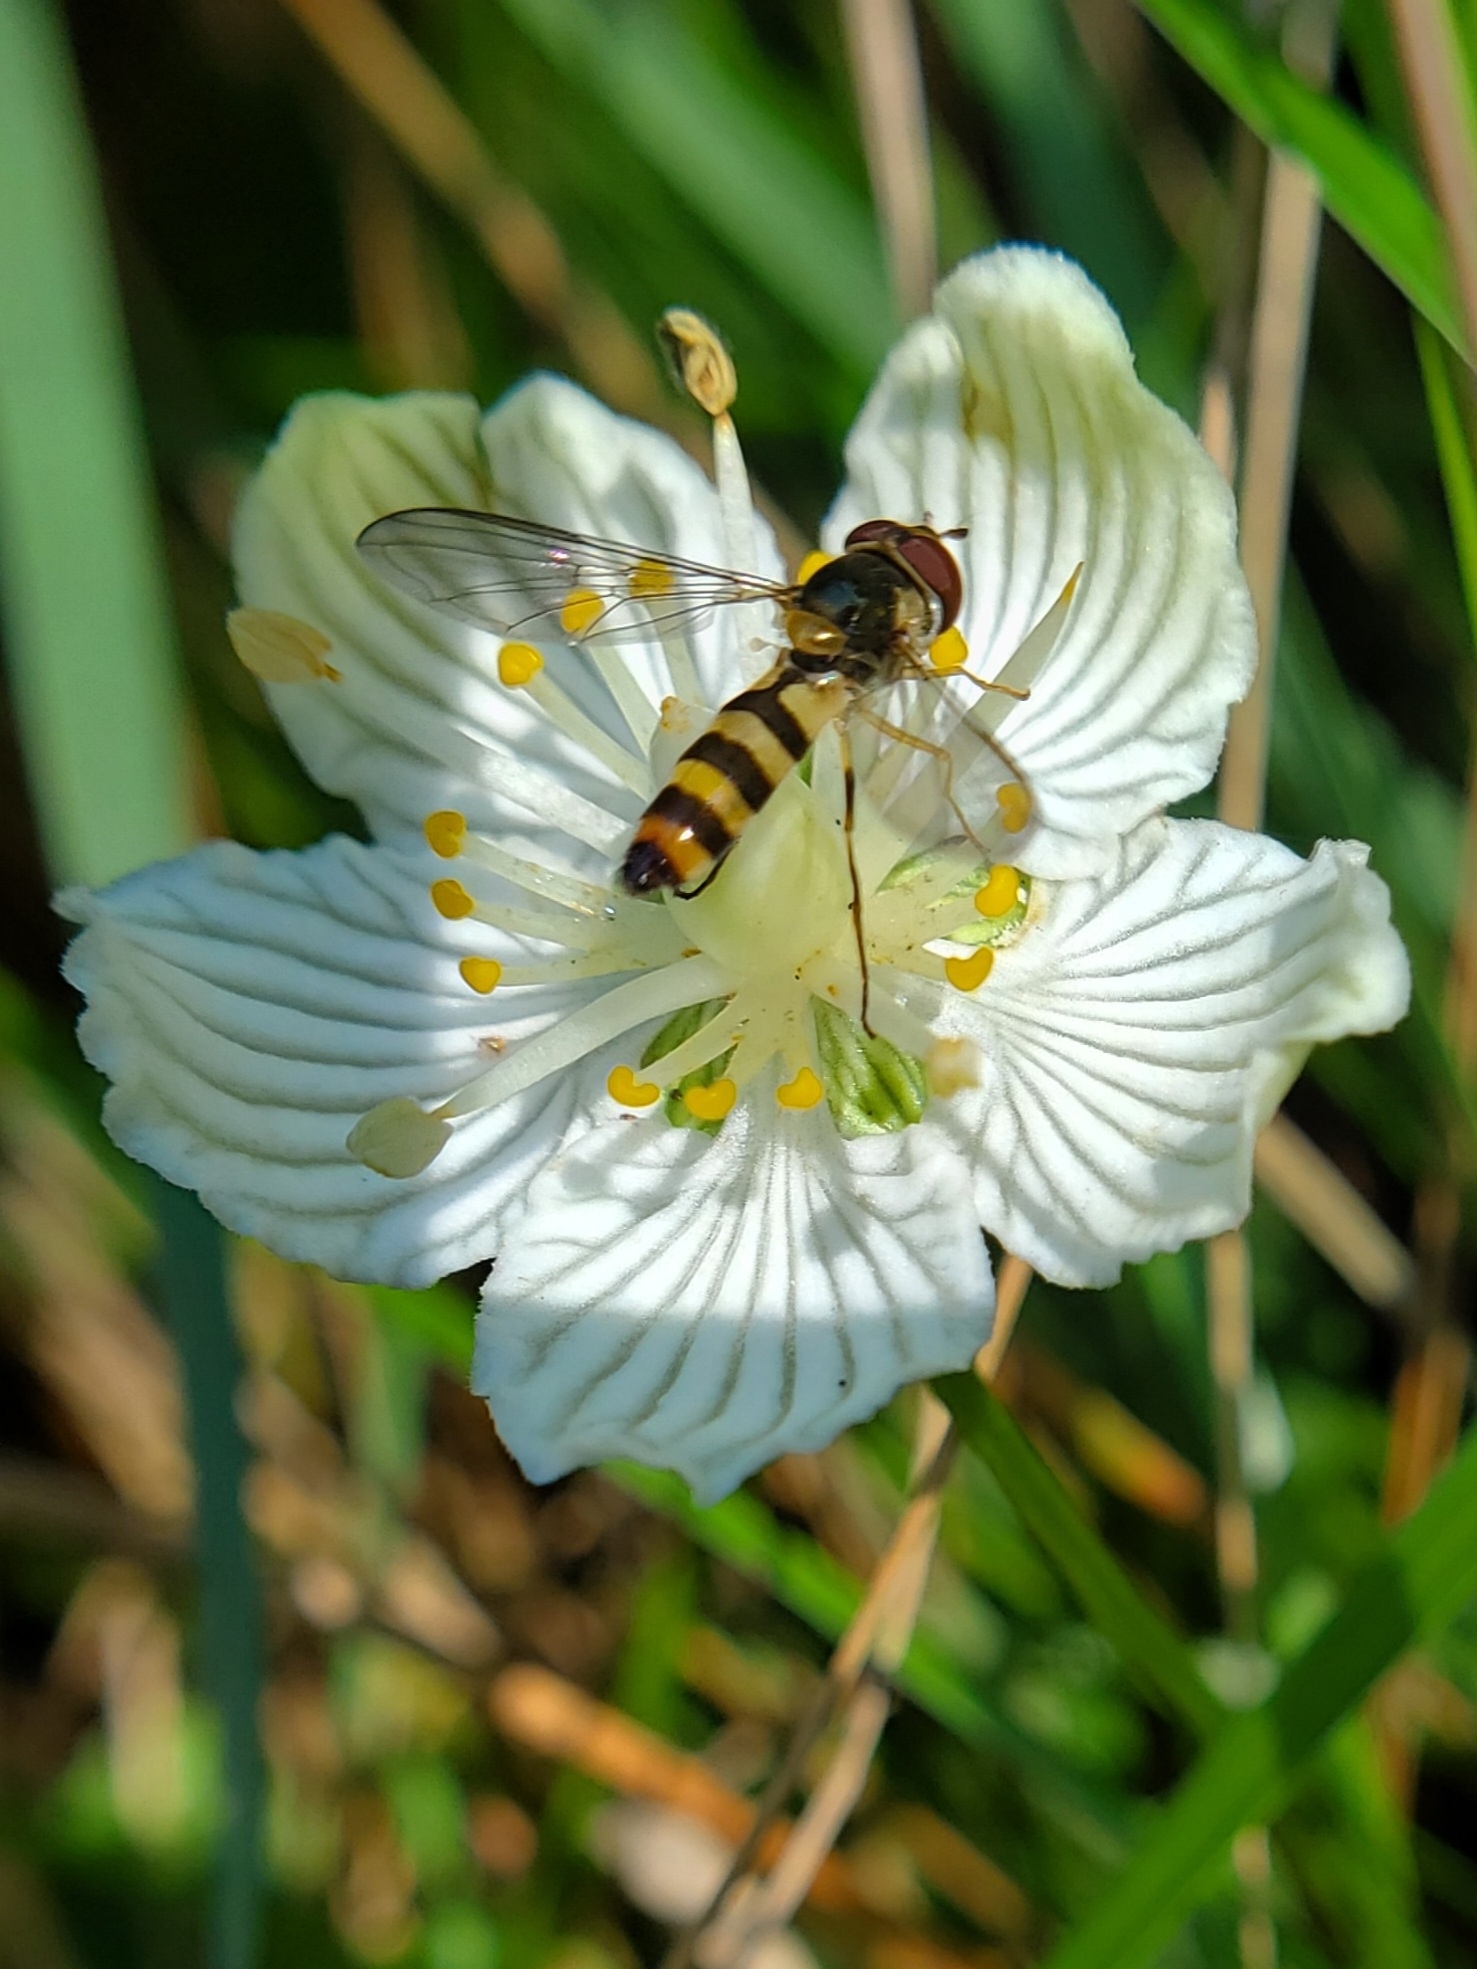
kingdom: Animalia
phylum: Arthropoda
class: Insecta
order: Diptera
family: Syrphidae
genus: Meliscaeva
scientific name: Meliscaeva cinctella
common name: American thintail fly
